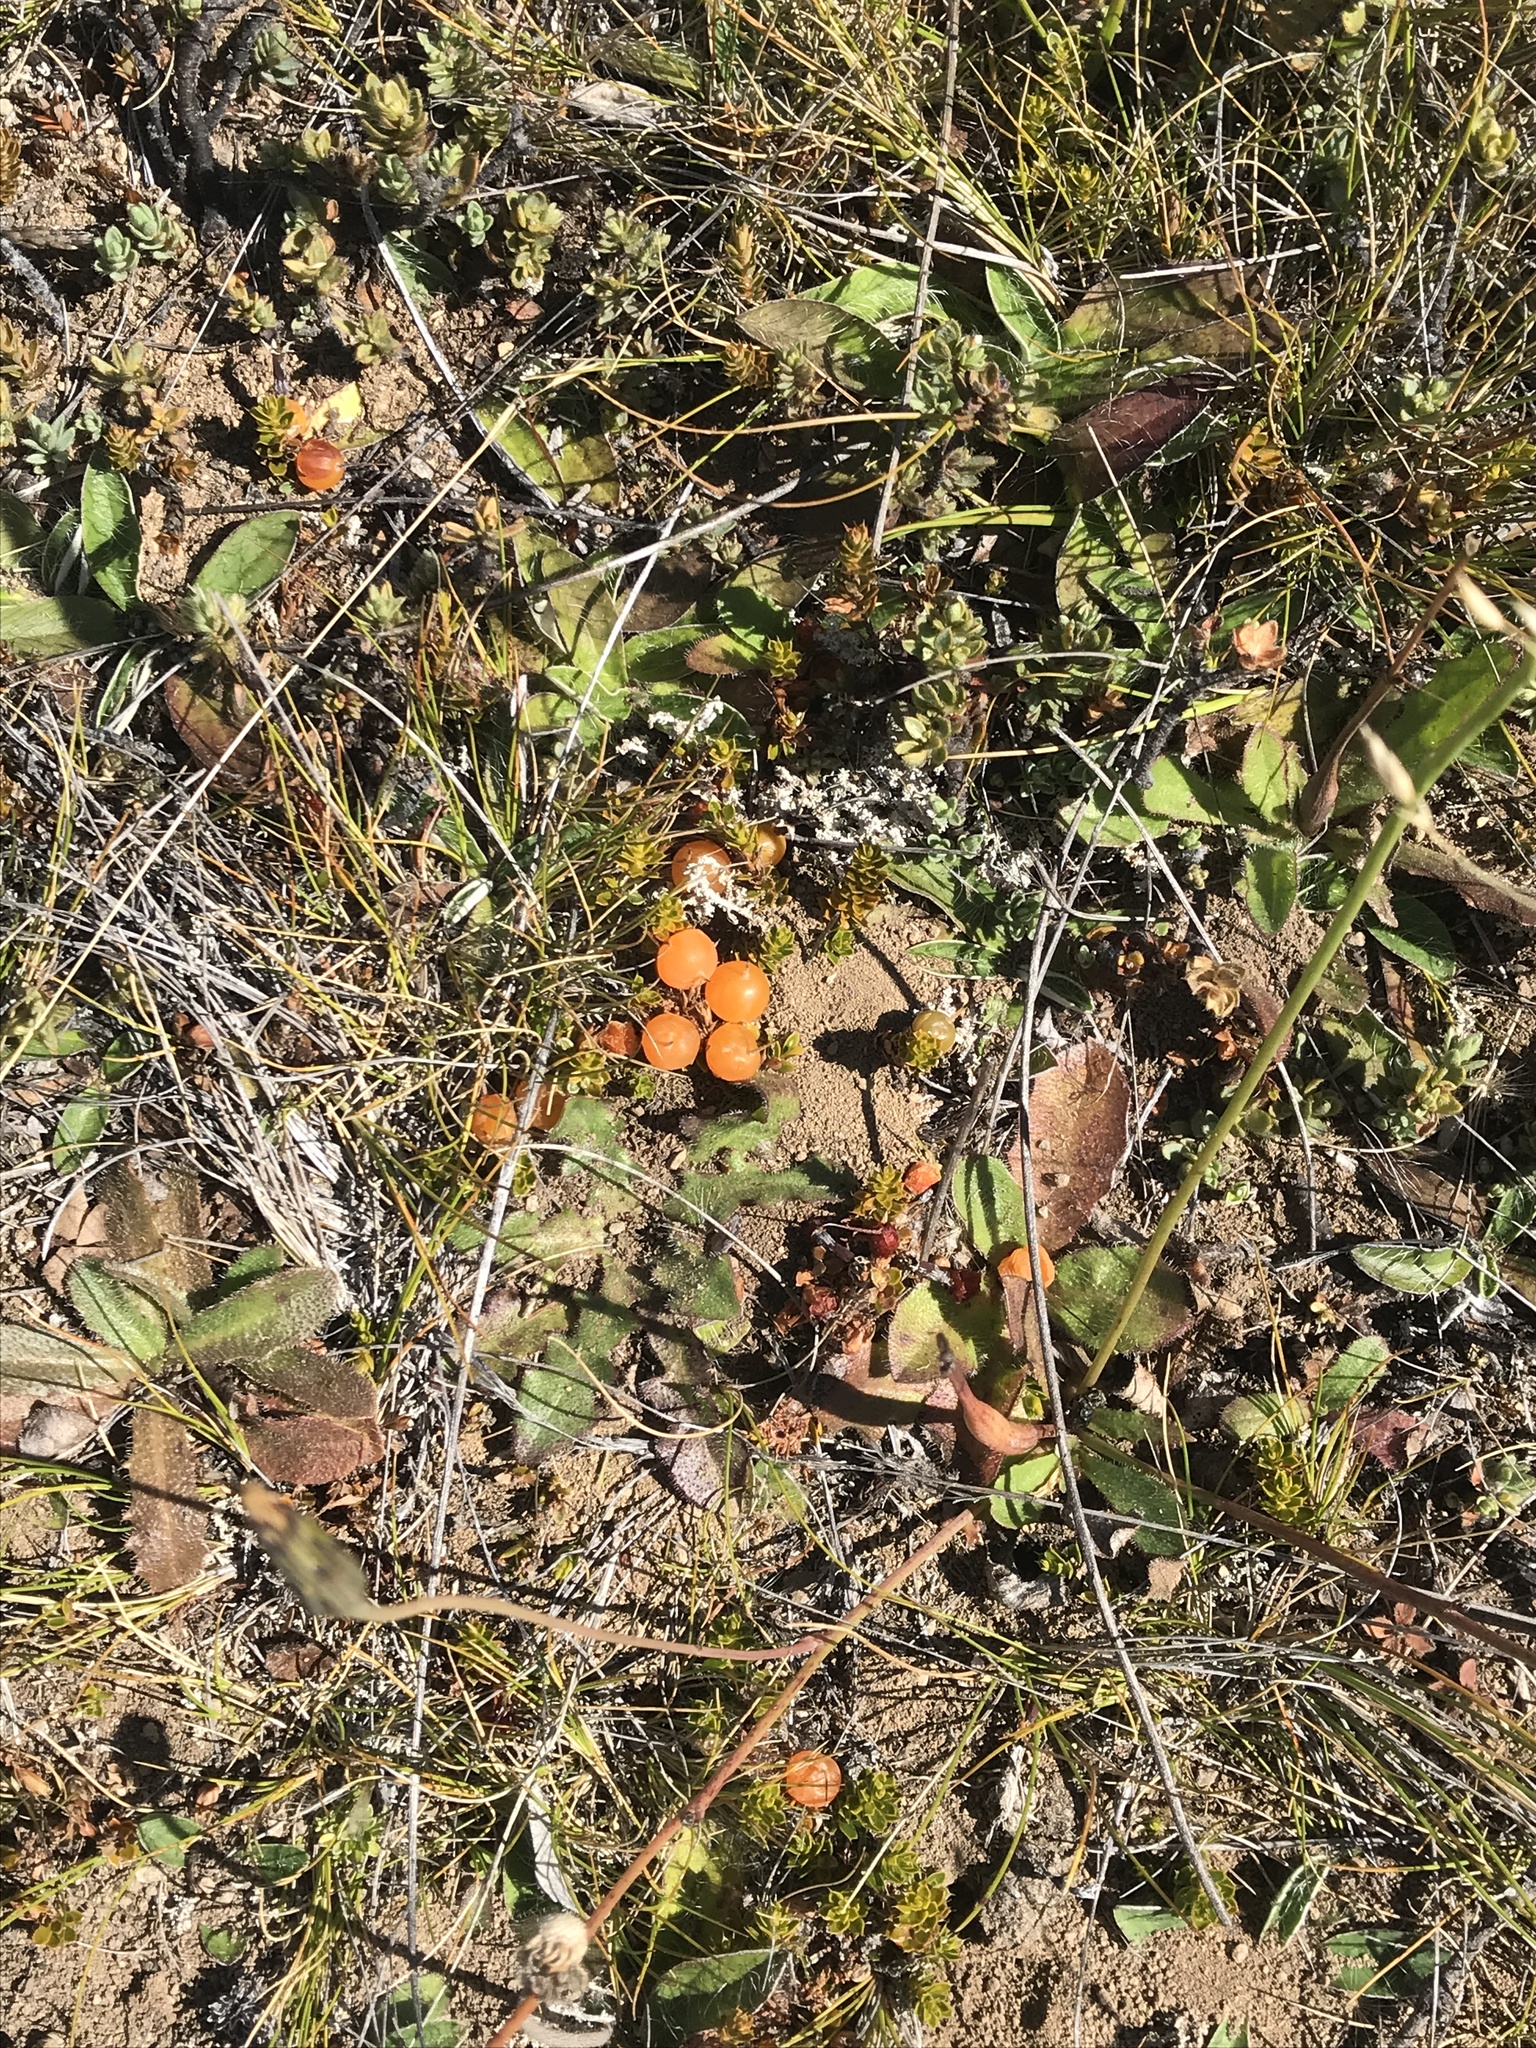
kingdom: Plantae
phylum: Tracheophyta
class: Magnoliopsida
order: Ericales
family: Ericaceae
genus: Styphelia
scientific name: Styphelia nesophila
